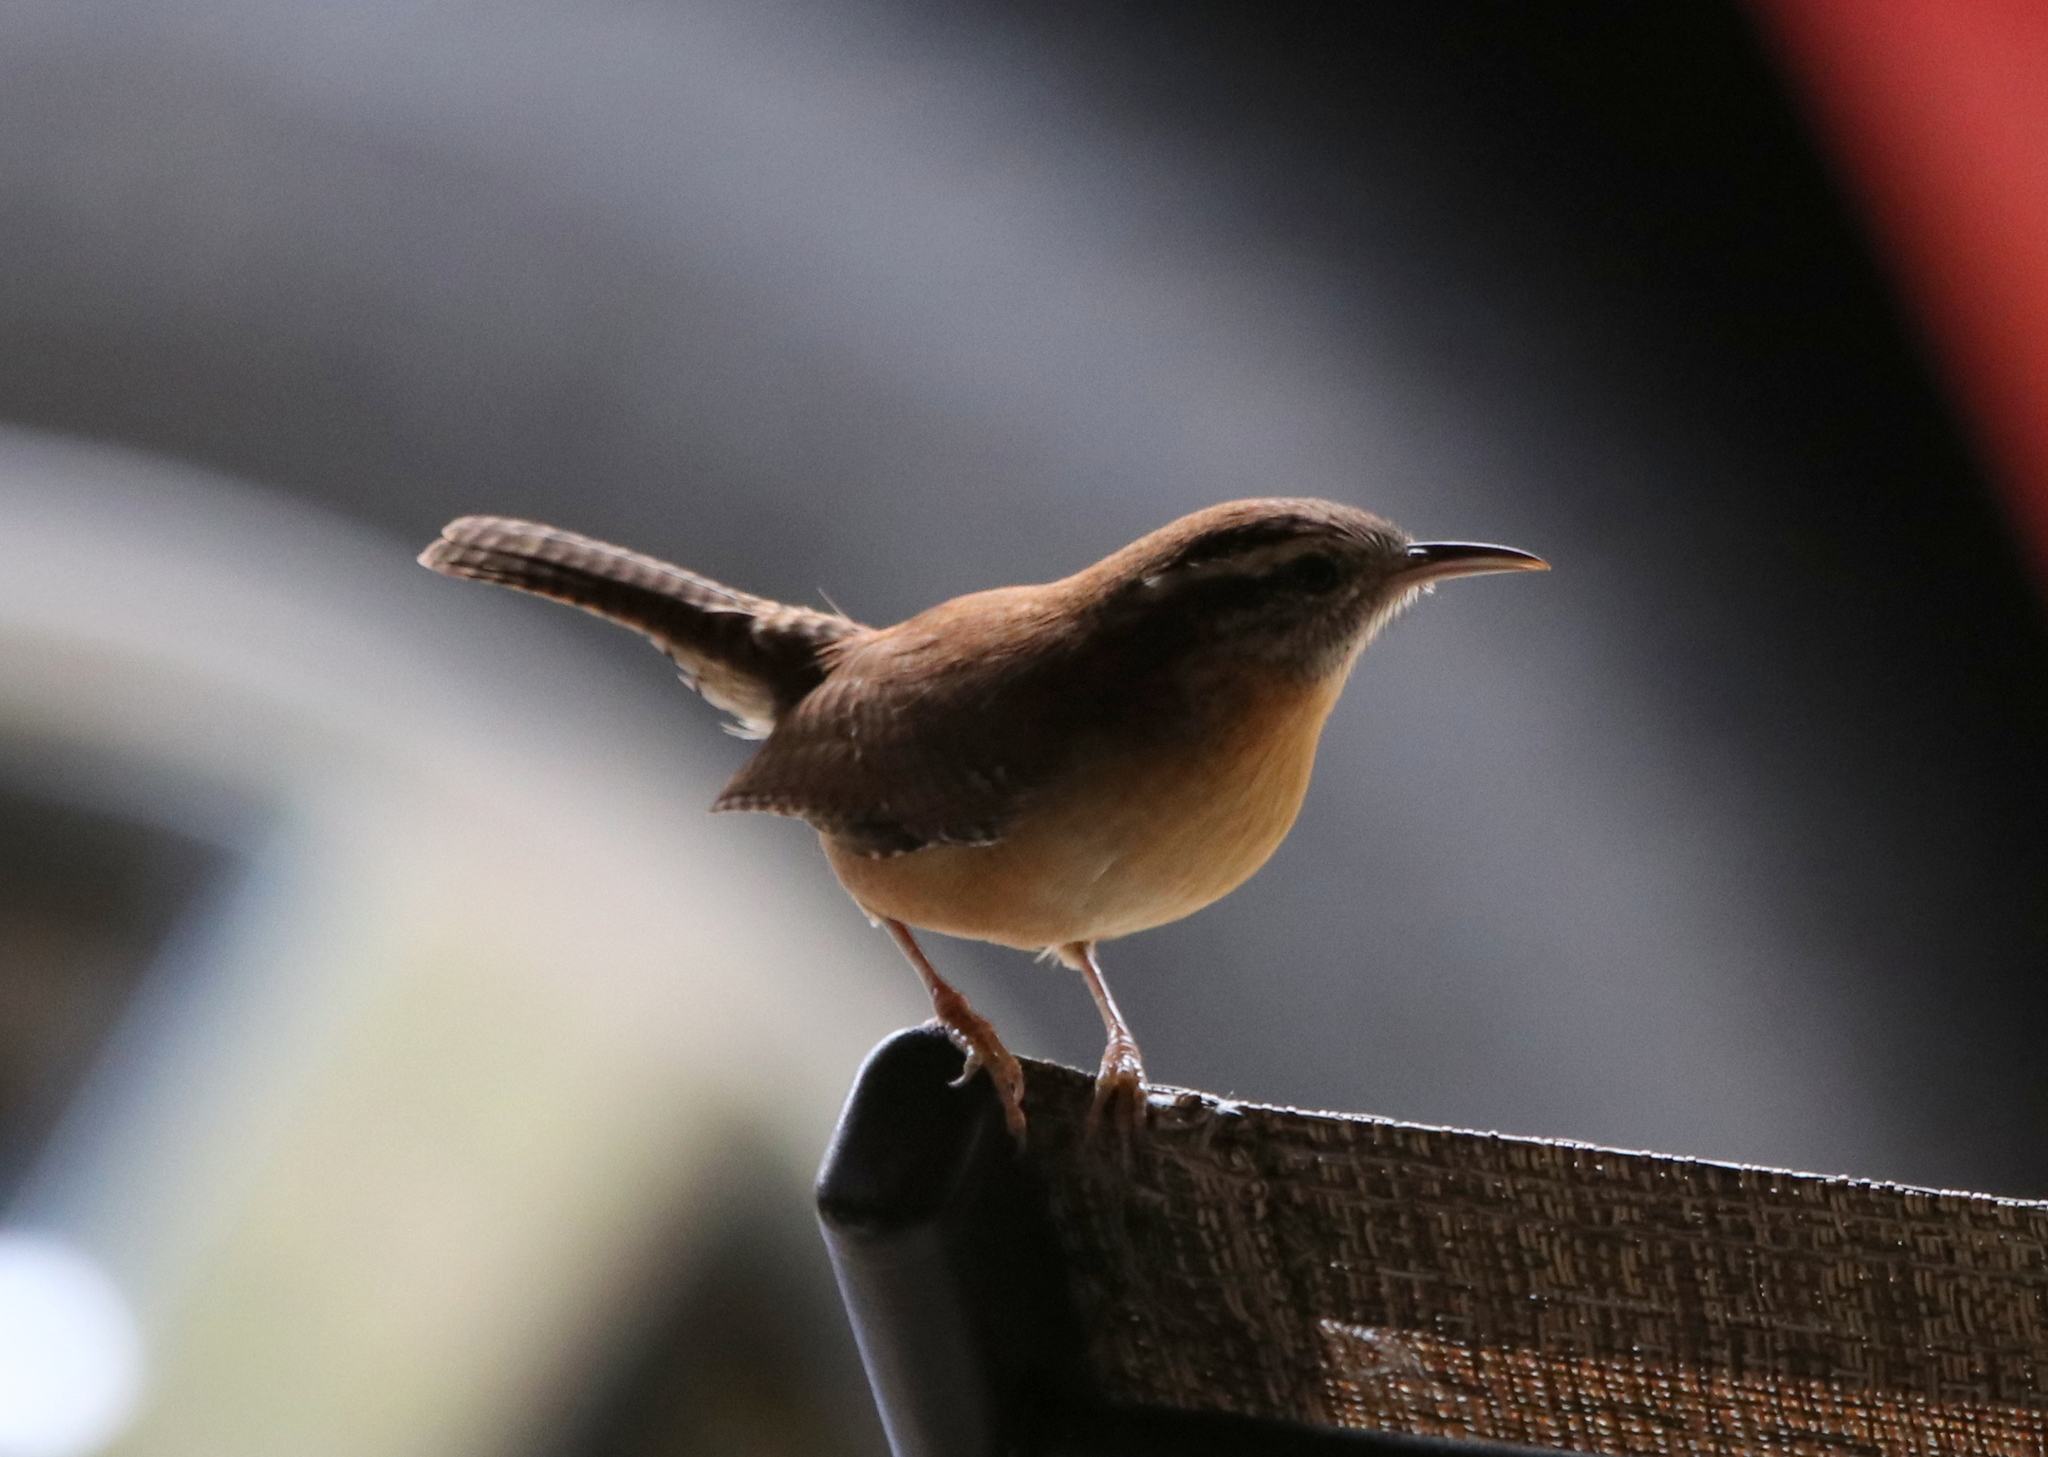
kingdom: Animalia
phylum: Chordata
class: Aves
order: Passeriformes
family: Troglodytidae
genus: Thryothorus
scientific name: Thryothorus ludovicianus
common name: Carolina wren
